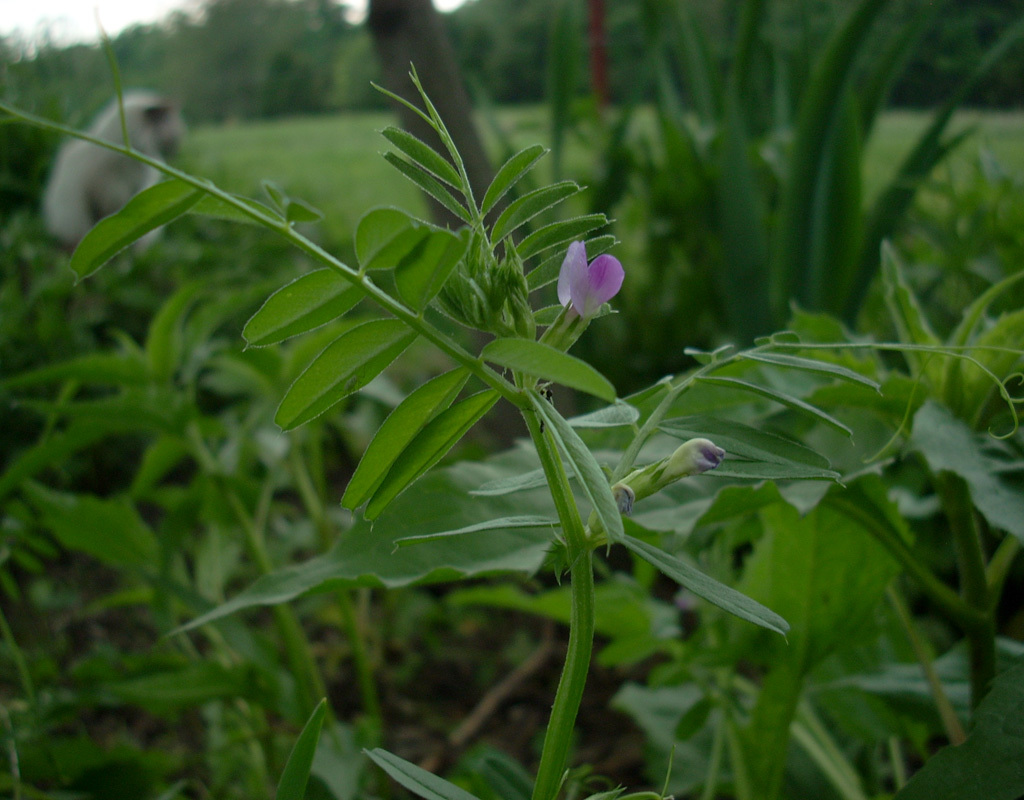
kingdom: Plantae
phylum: Tracheophyta
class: Magnoliopsida
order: Fabales
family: Fabaceae
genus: Vicia
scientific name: Vicia
